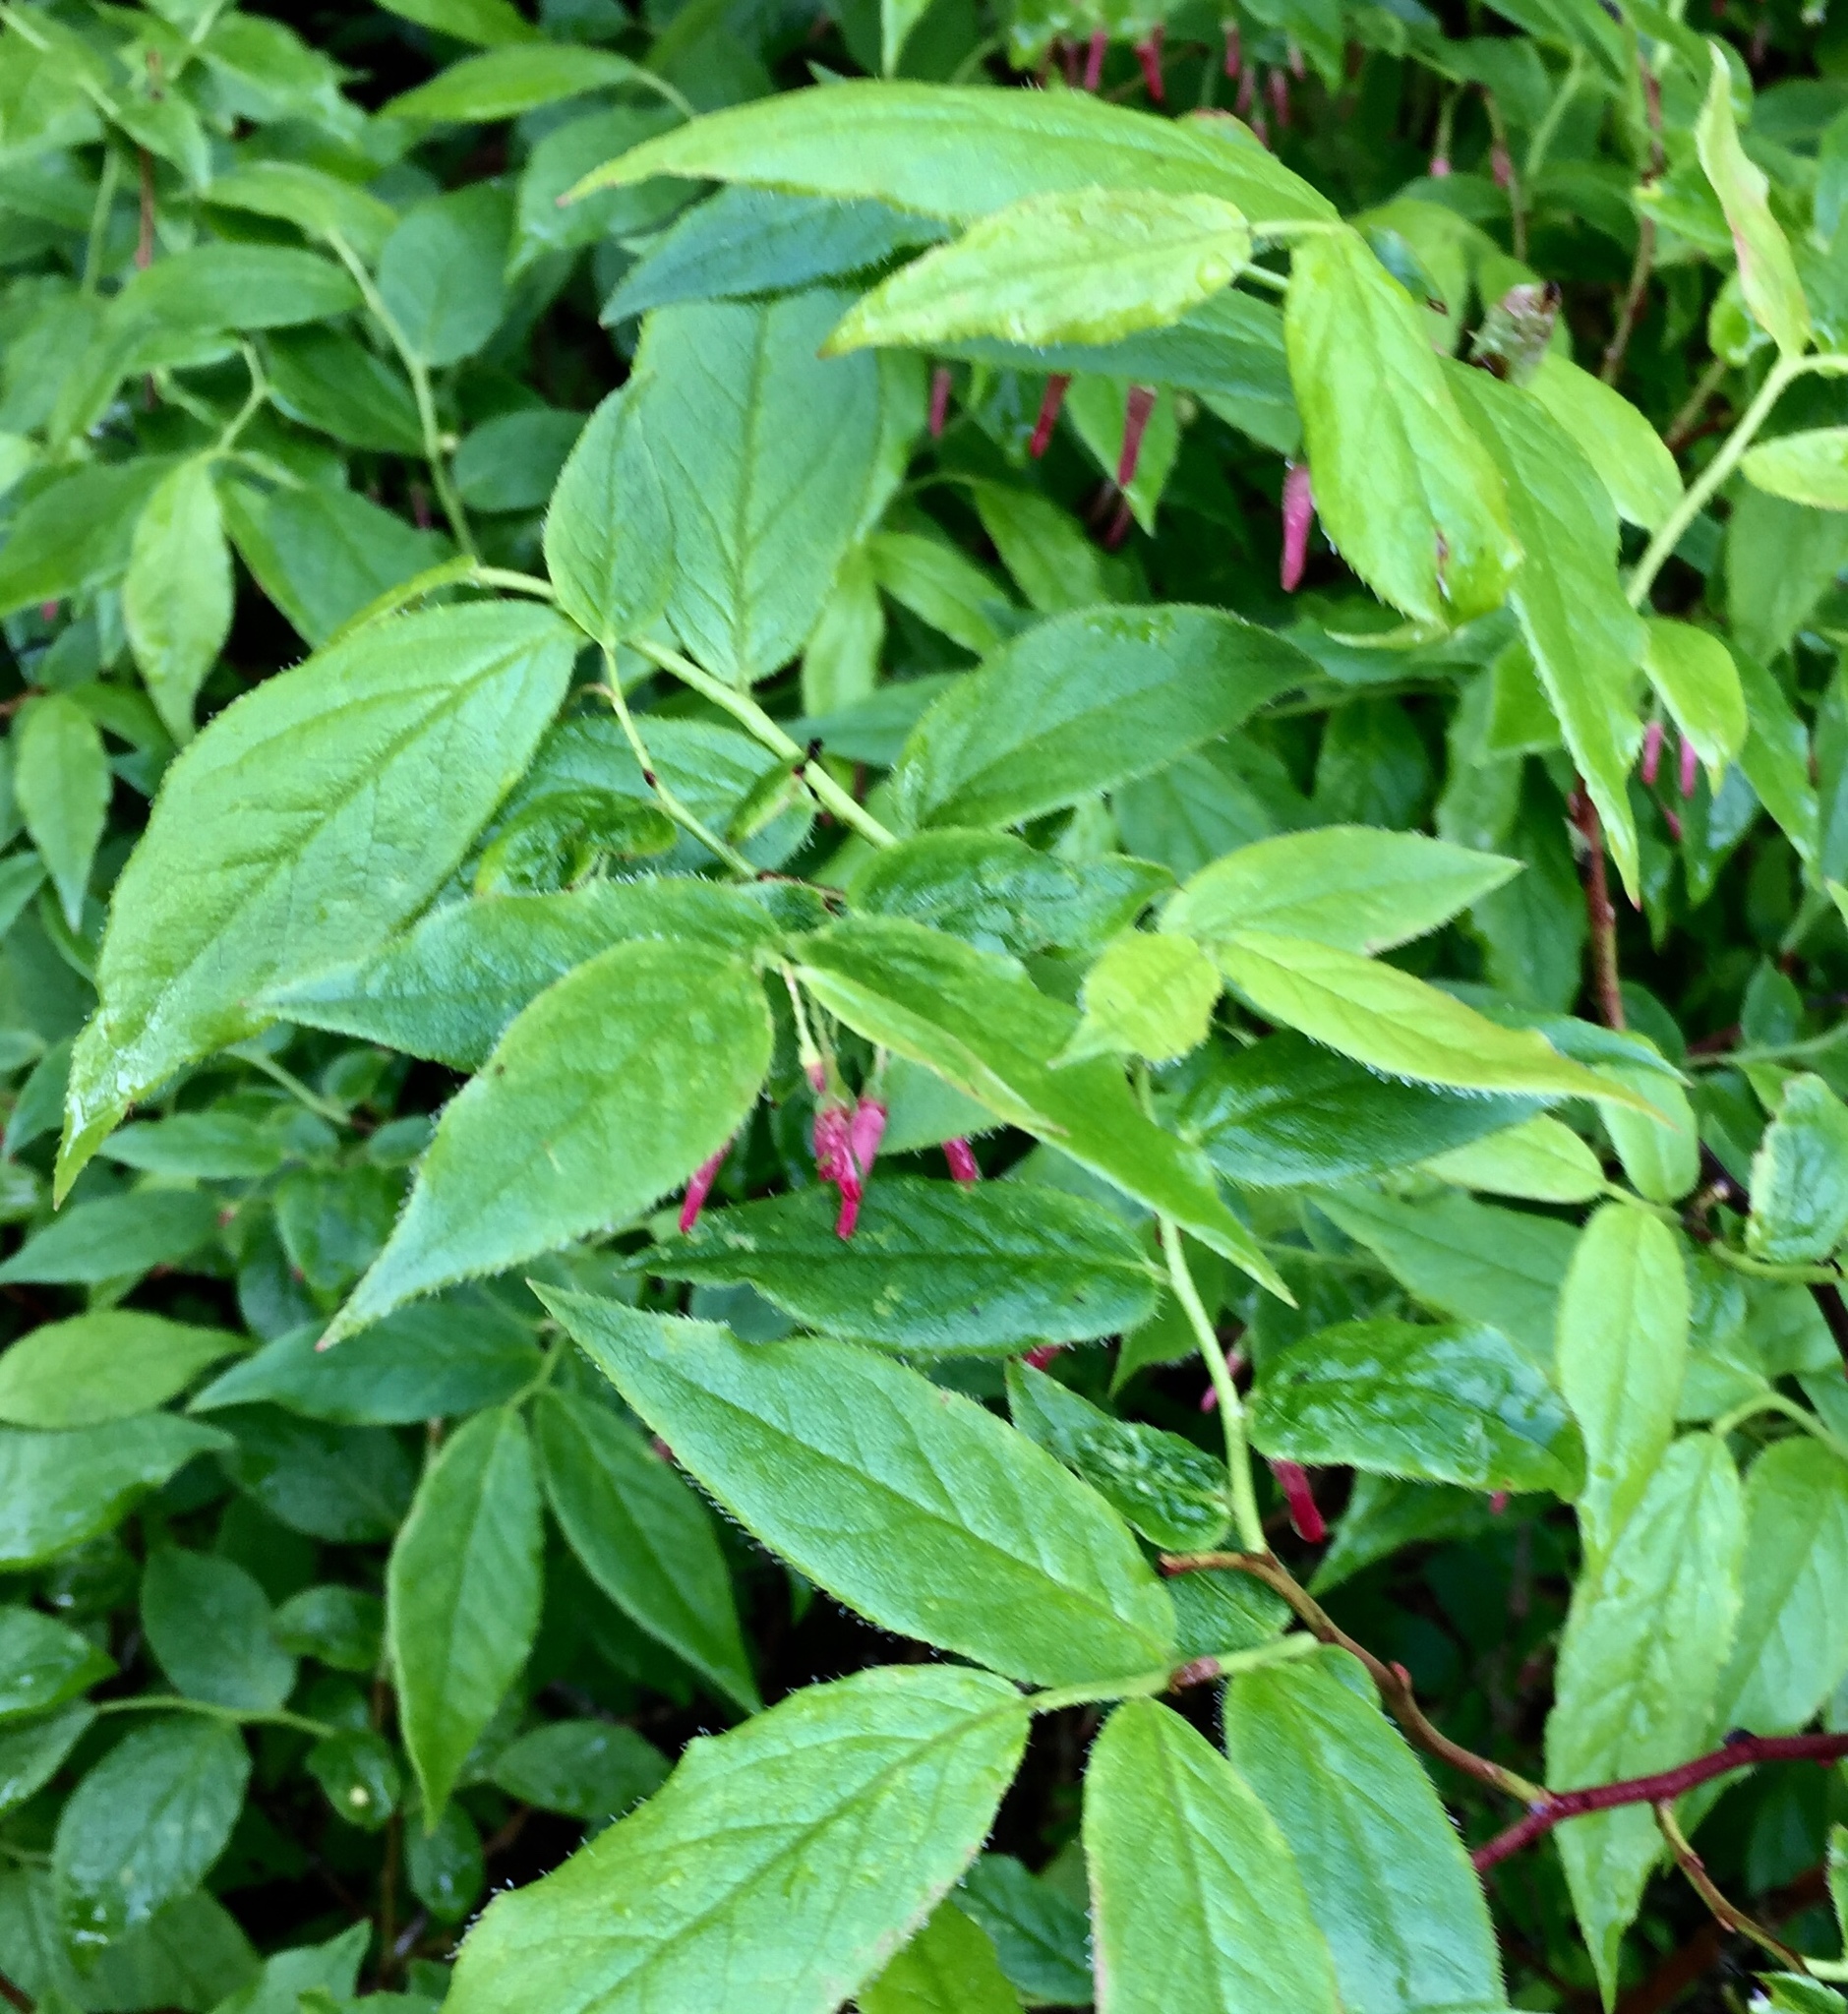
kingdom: Plantae
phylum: Tracheophyta
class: Magnoliopsida
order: Ericales
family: Ericaceae
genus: Vaccinium
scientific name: Vaccinium erythrocarpum
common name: Bearberry
